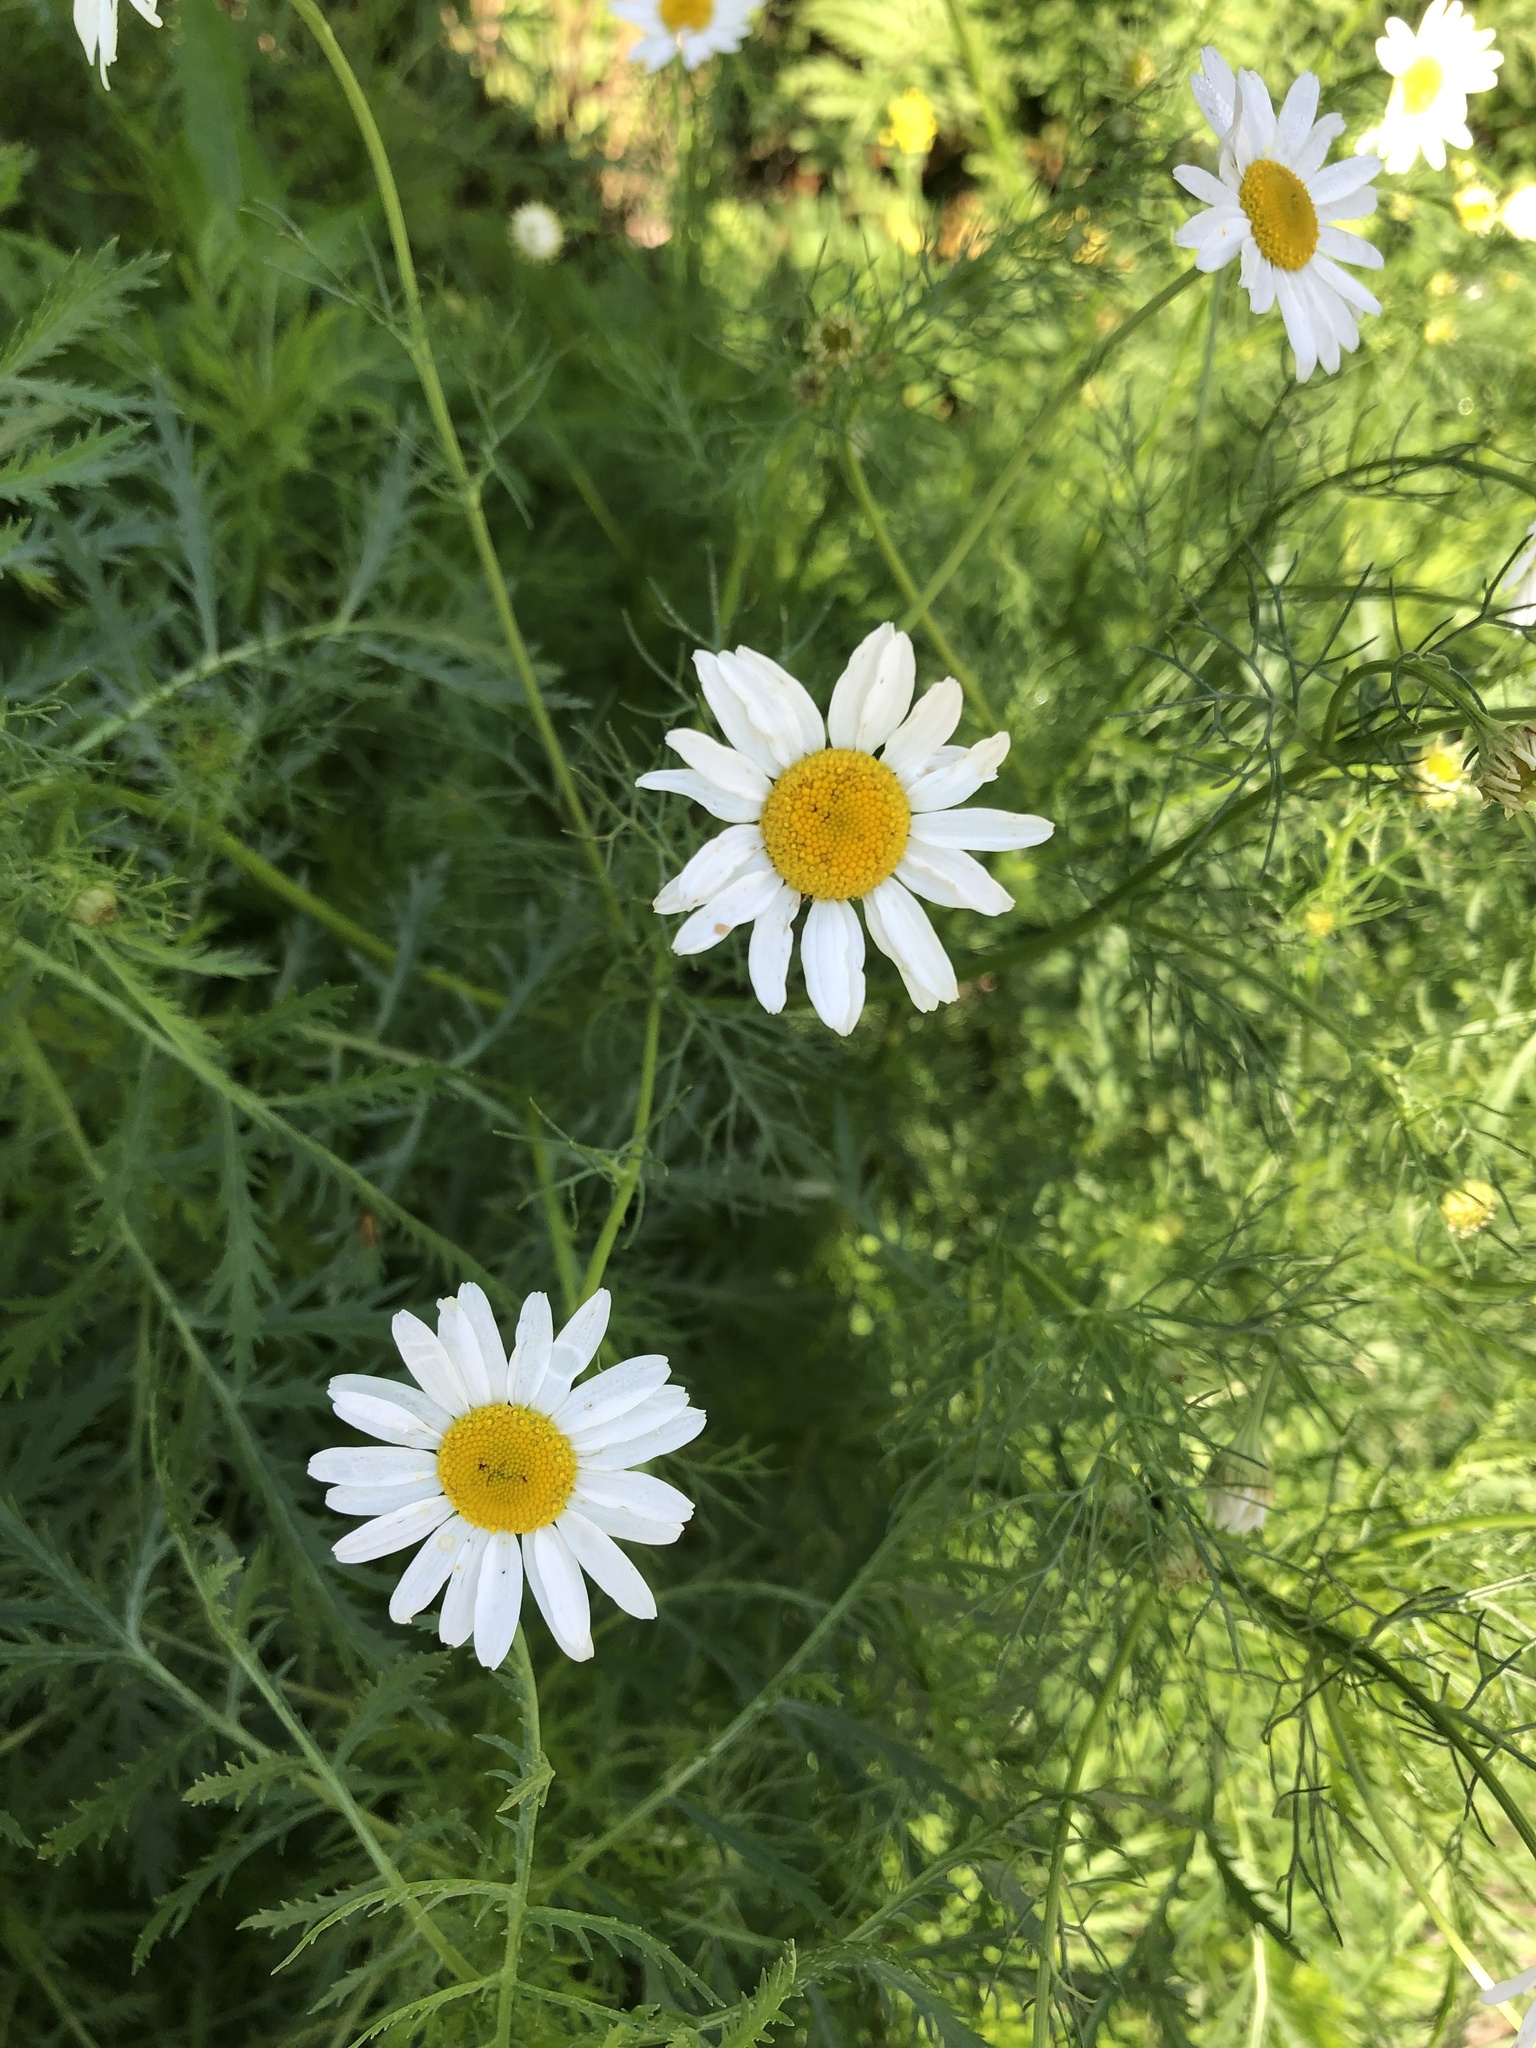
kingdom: Plantae
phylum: Tracheophyta
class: Magnoliopsida
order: Asterales
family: Asteraceae
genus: Tripleurospermum
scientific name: Tripleurospermum inodorum
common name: Scentless mayweed
